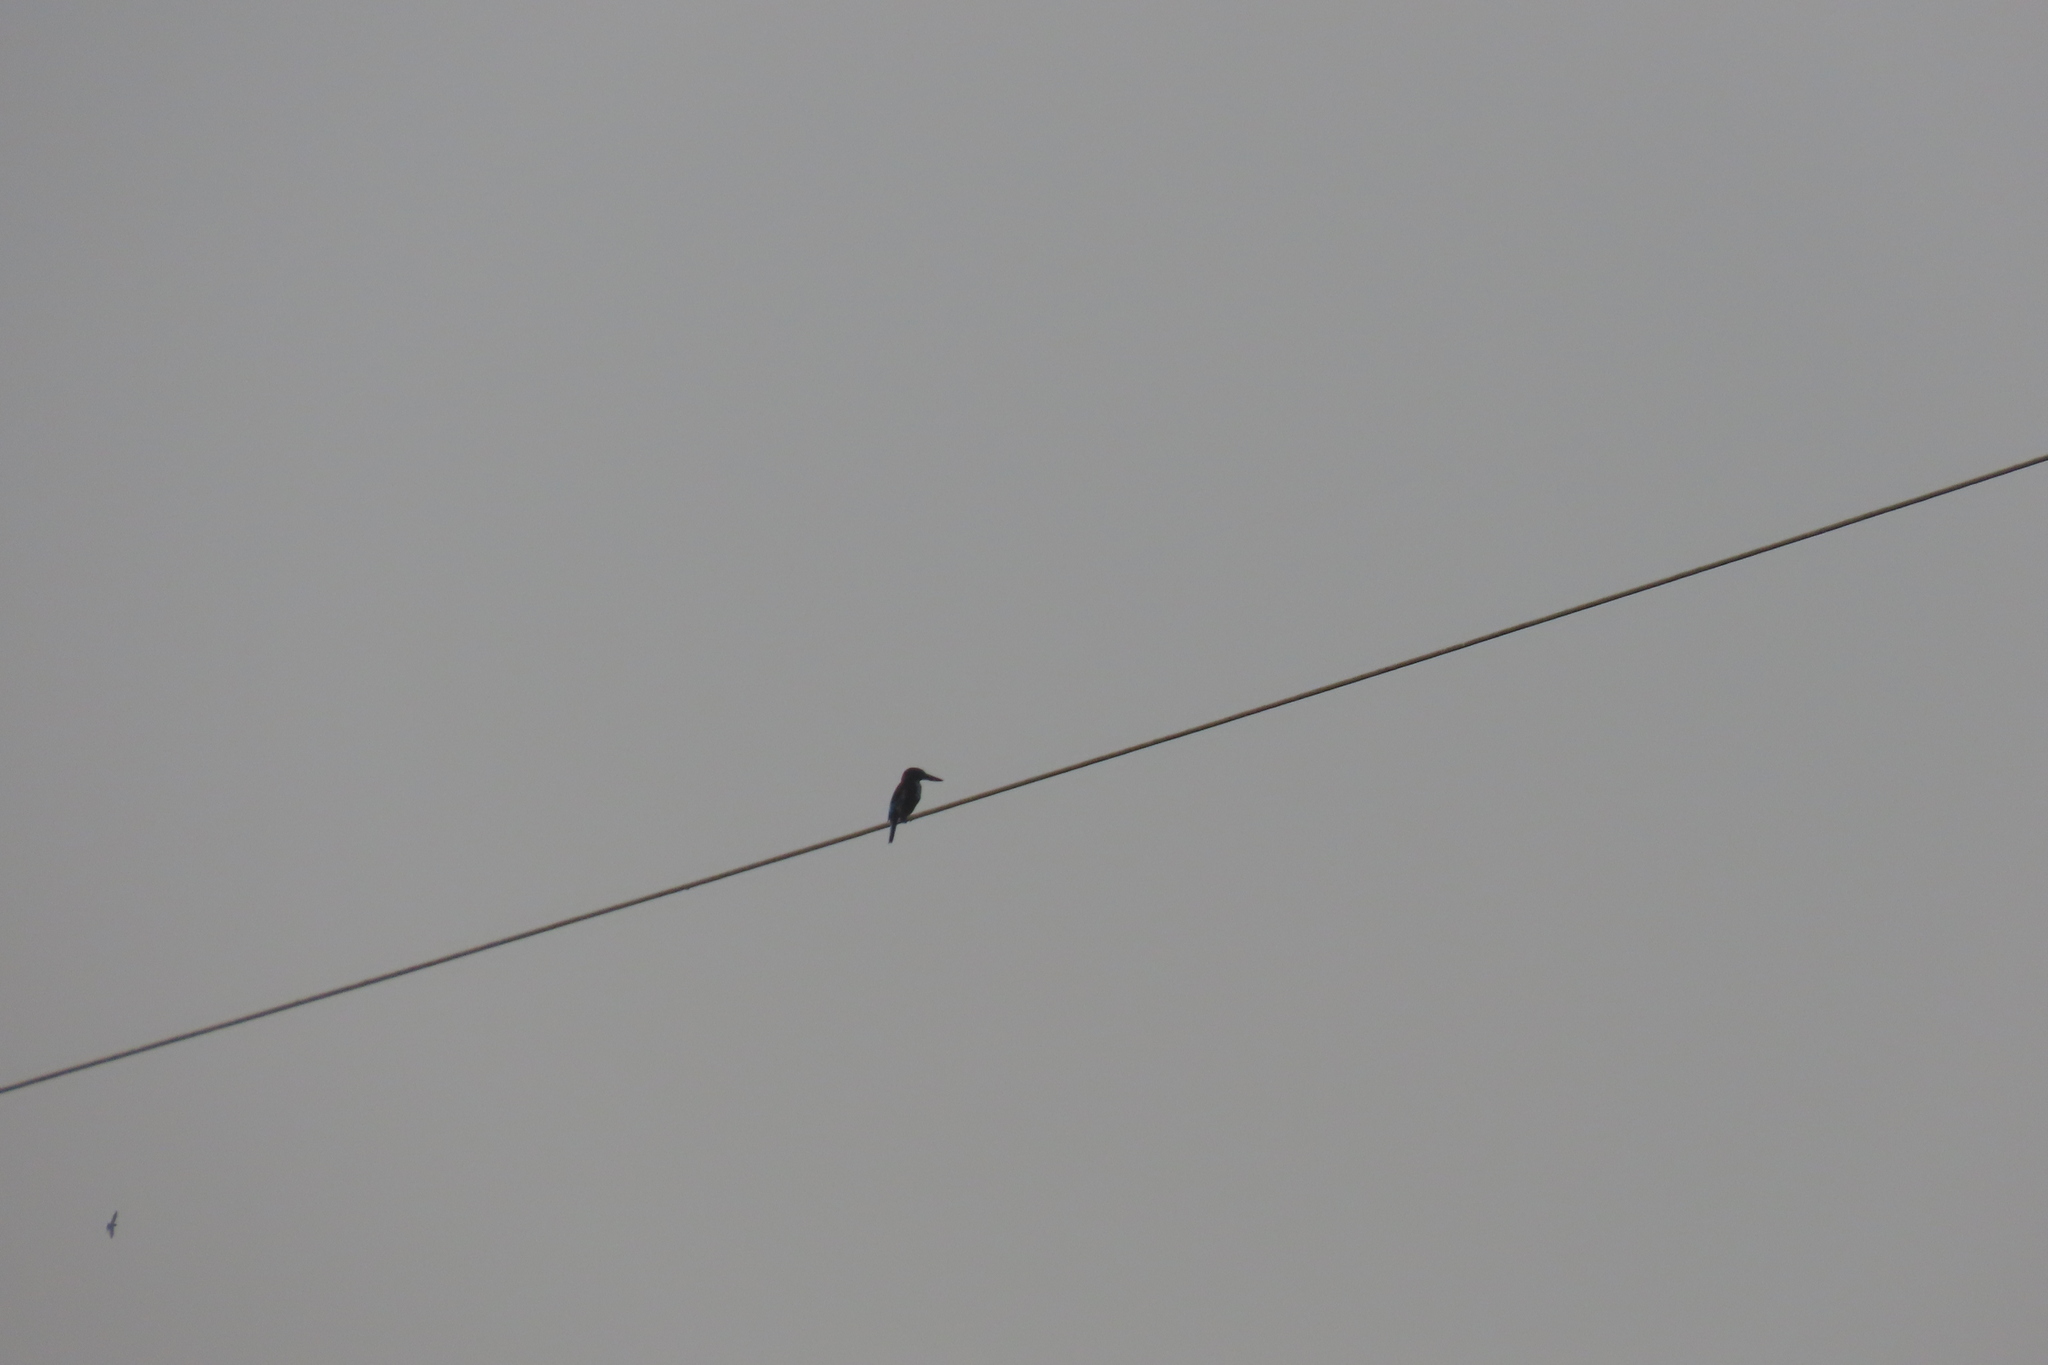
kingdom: Animalia
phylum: Chordata
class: Aves
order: Coraciiformes
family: Alcedinidae
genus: Halcyon
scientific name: Halcyon smyrnensis
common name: White-throated kingfisher
